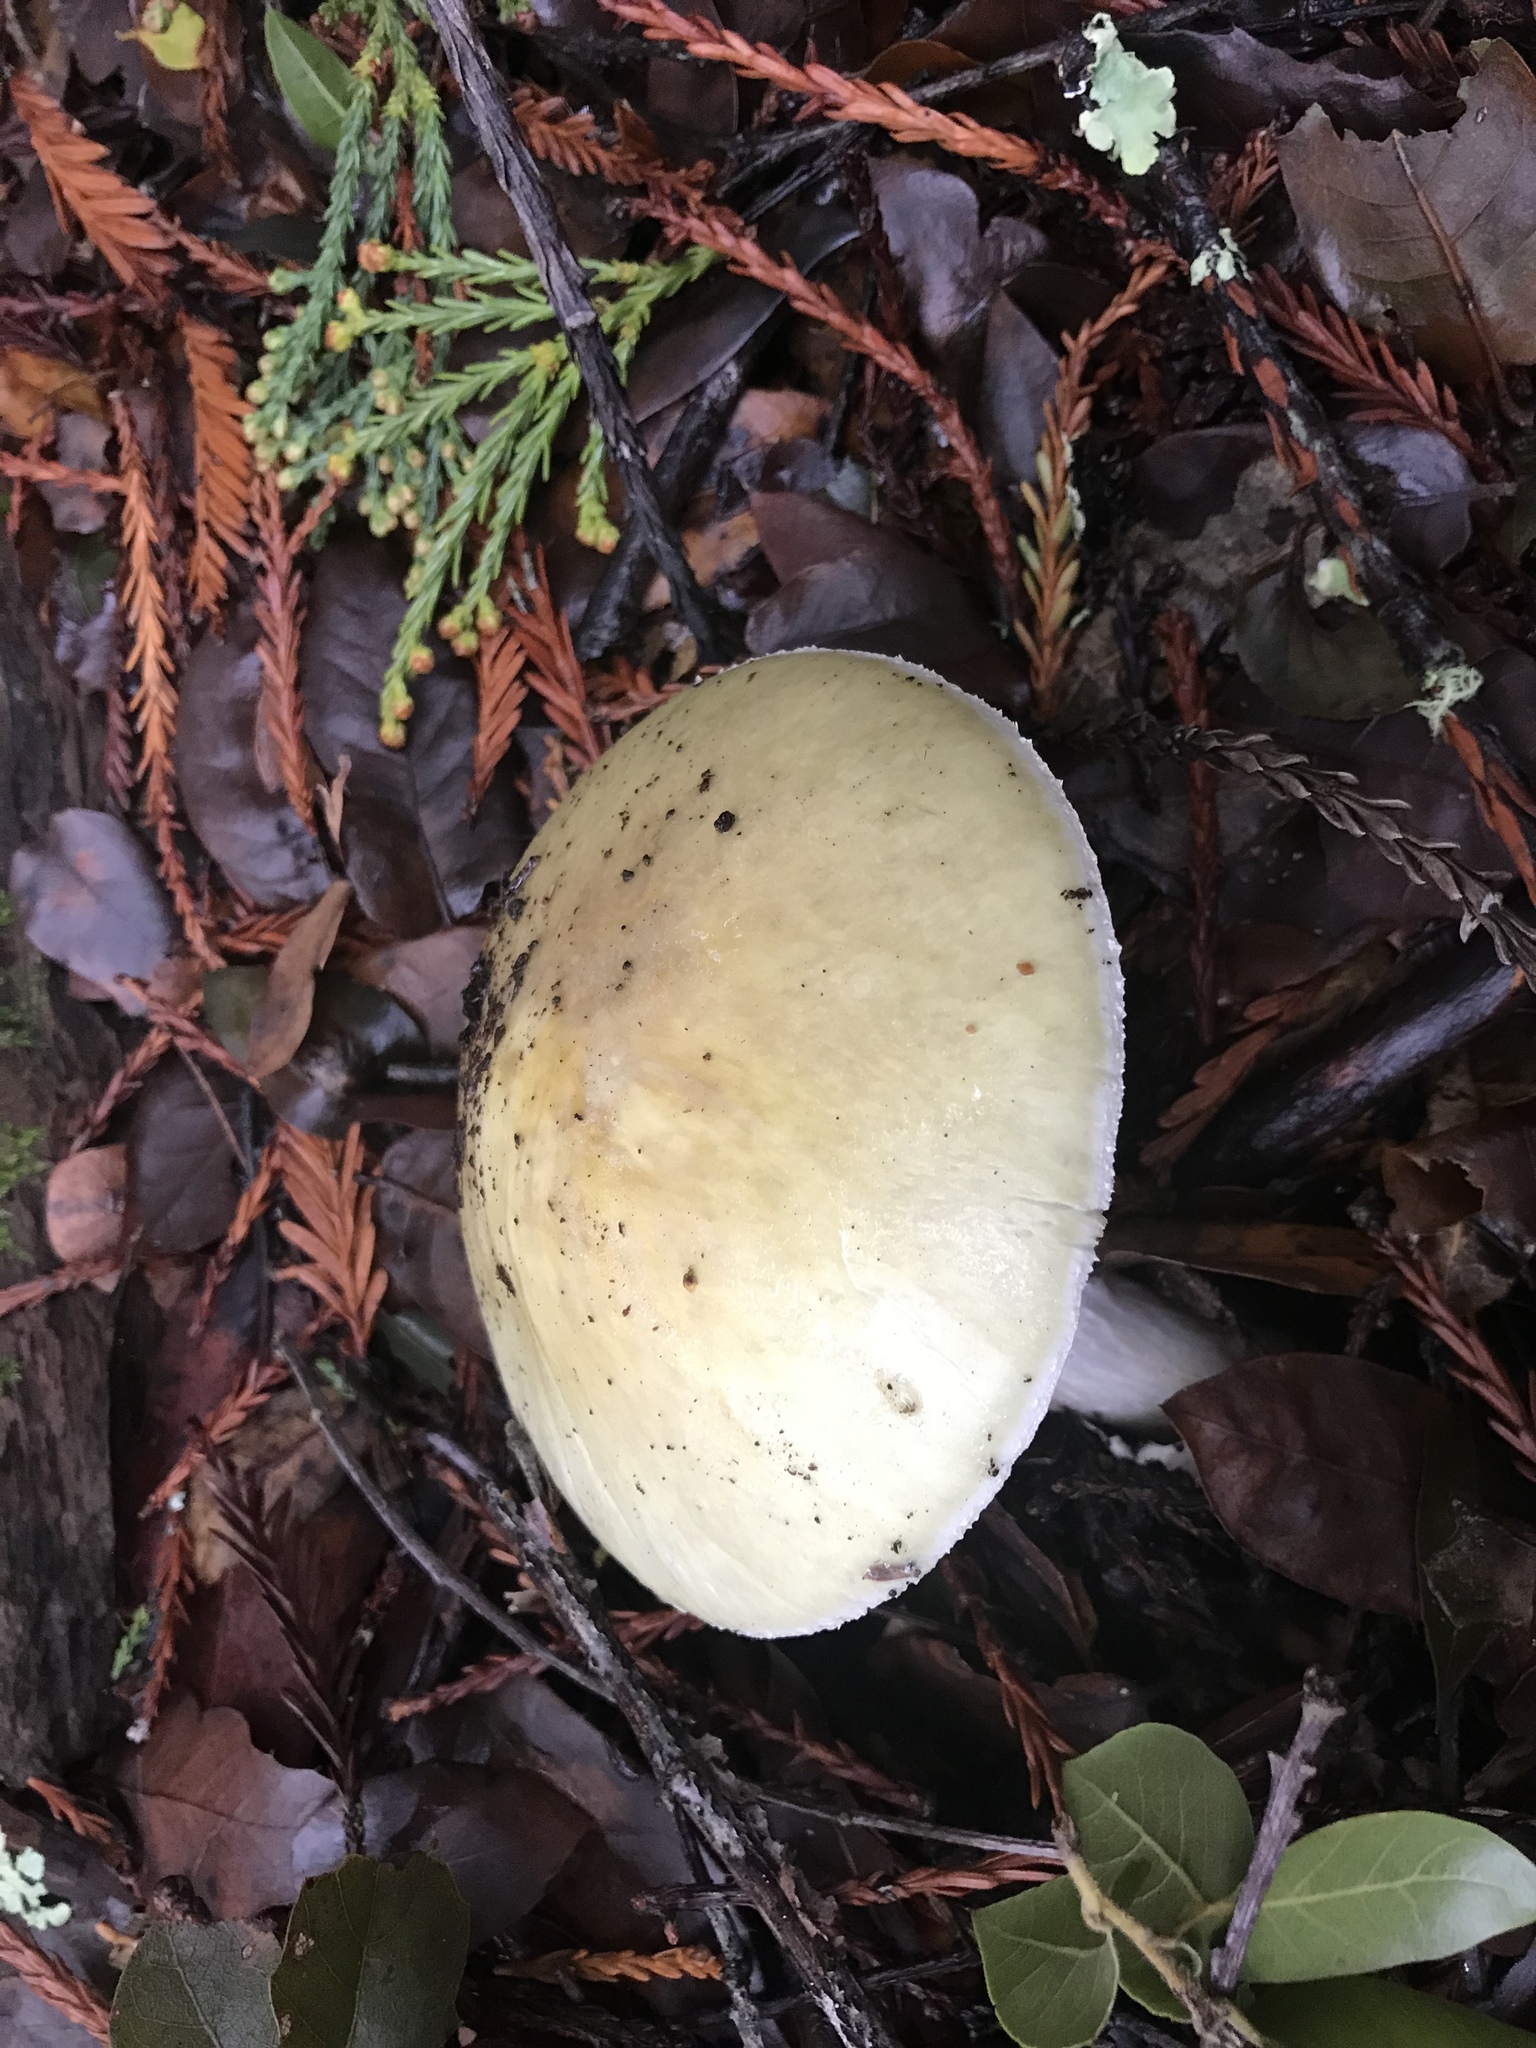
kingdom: Fungi
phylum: Basidiomycota
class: Agaricomycetes
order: Agaricales
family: Amanitaceae
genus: Amanita
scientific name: Amanita phalloides
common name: Death cap
